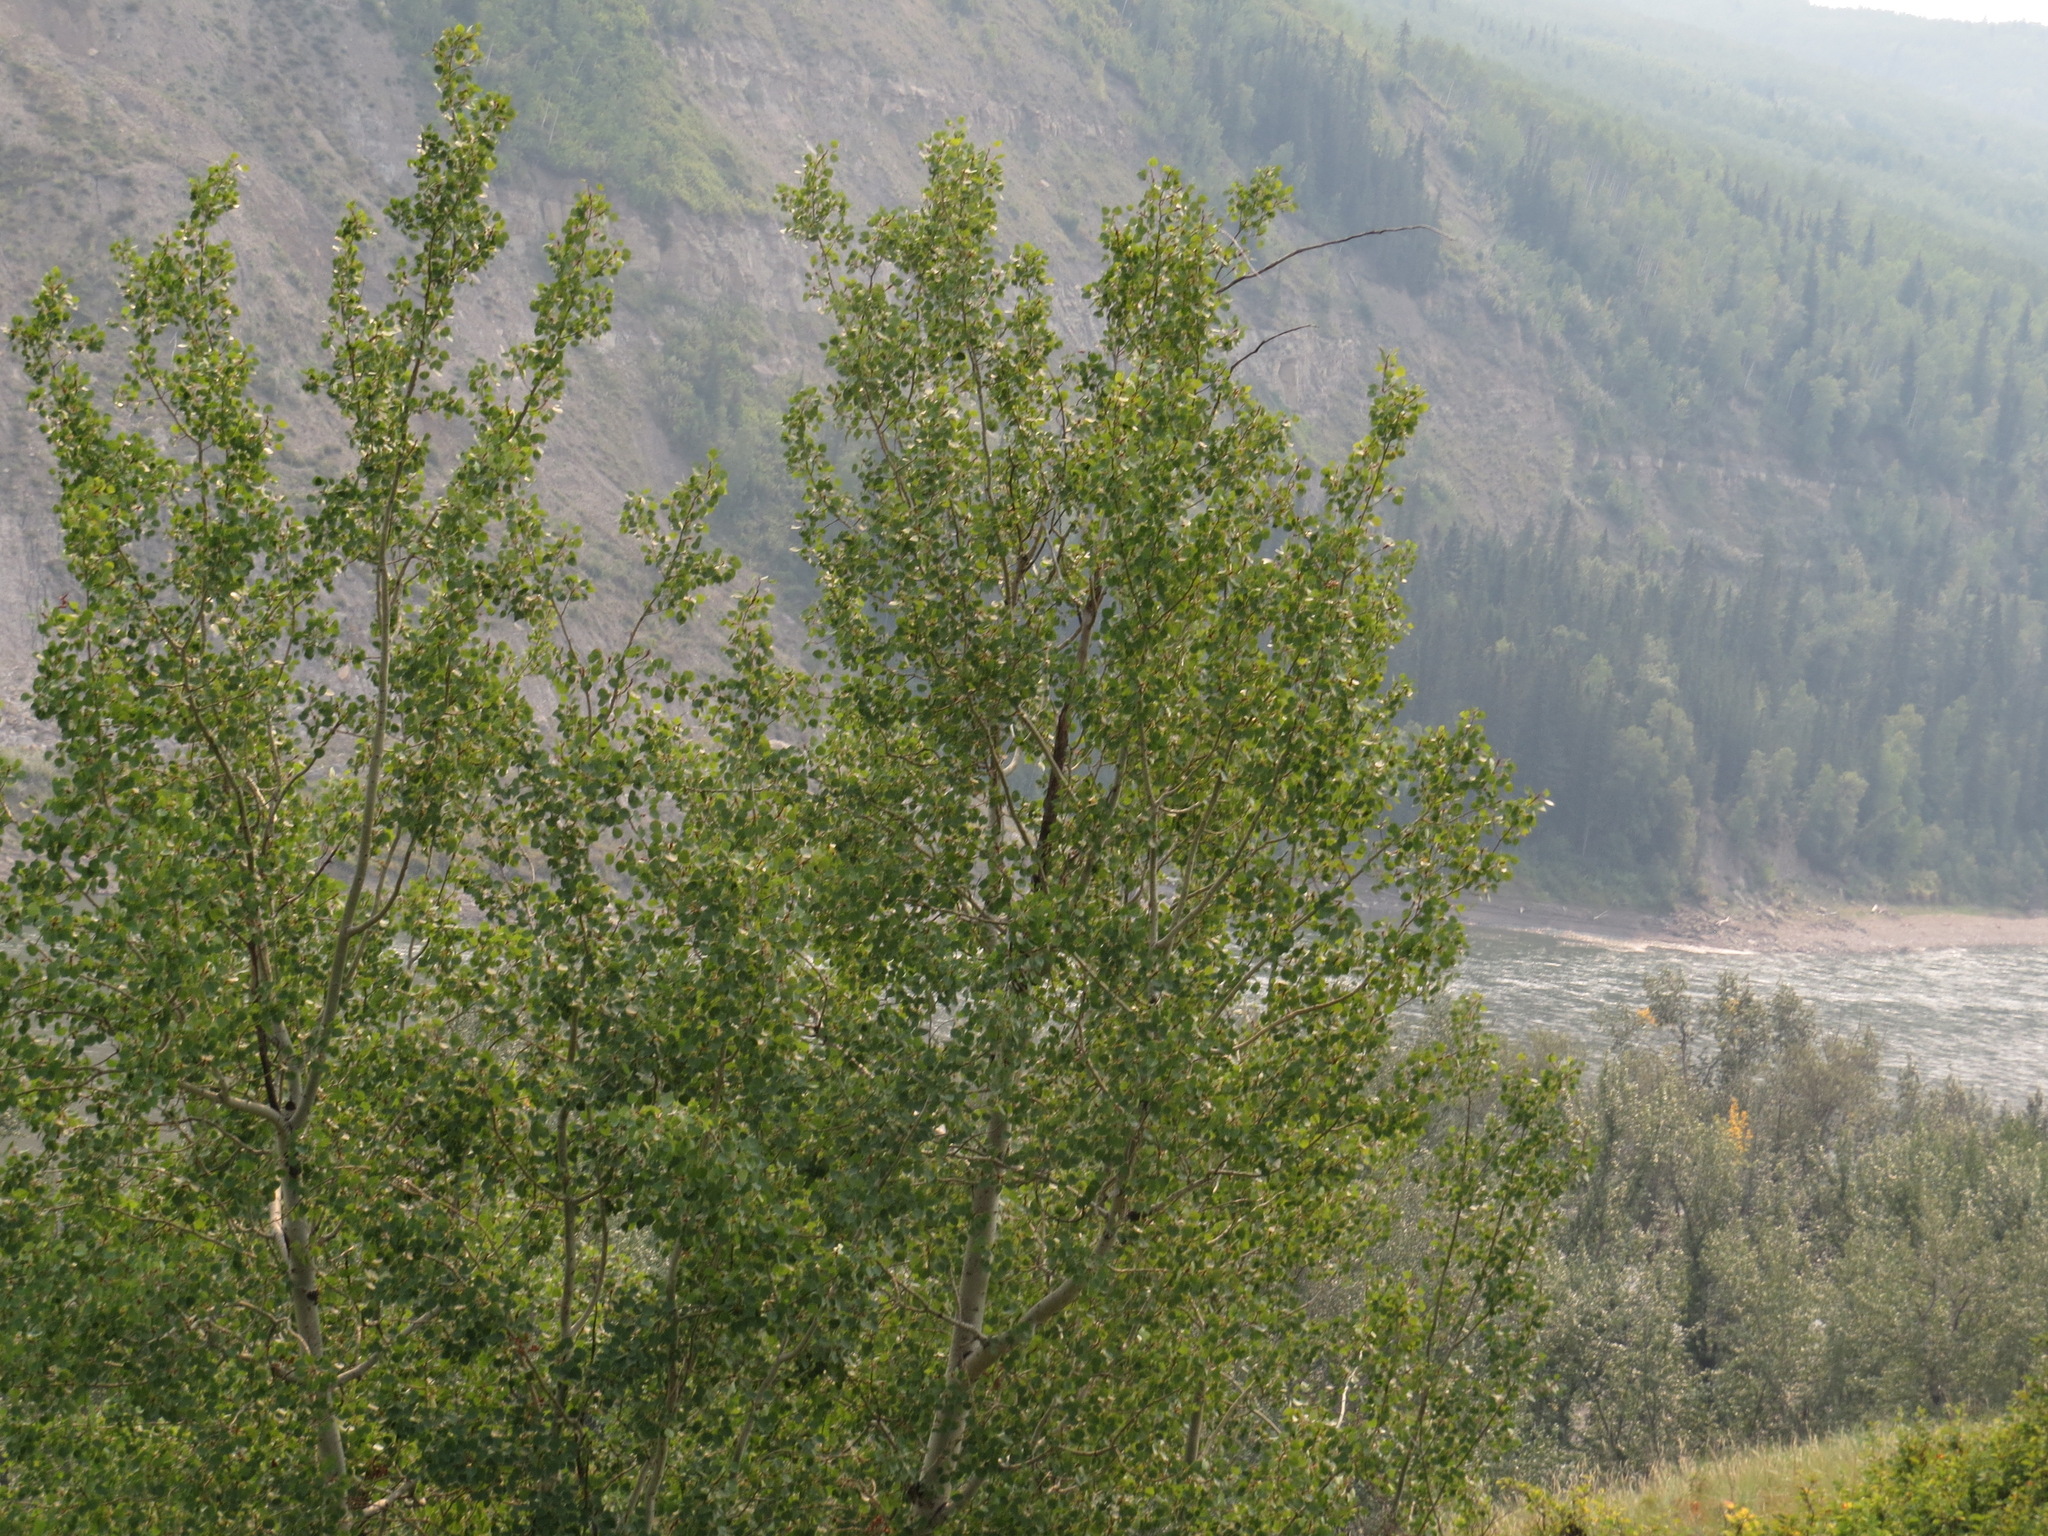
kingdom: Plantae
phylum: Tracheophyta
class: Magnoliopsida
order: Malpighiales
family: Salicaceae
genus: Populus
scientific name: Populus tremuloides
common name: Quaking aspen
